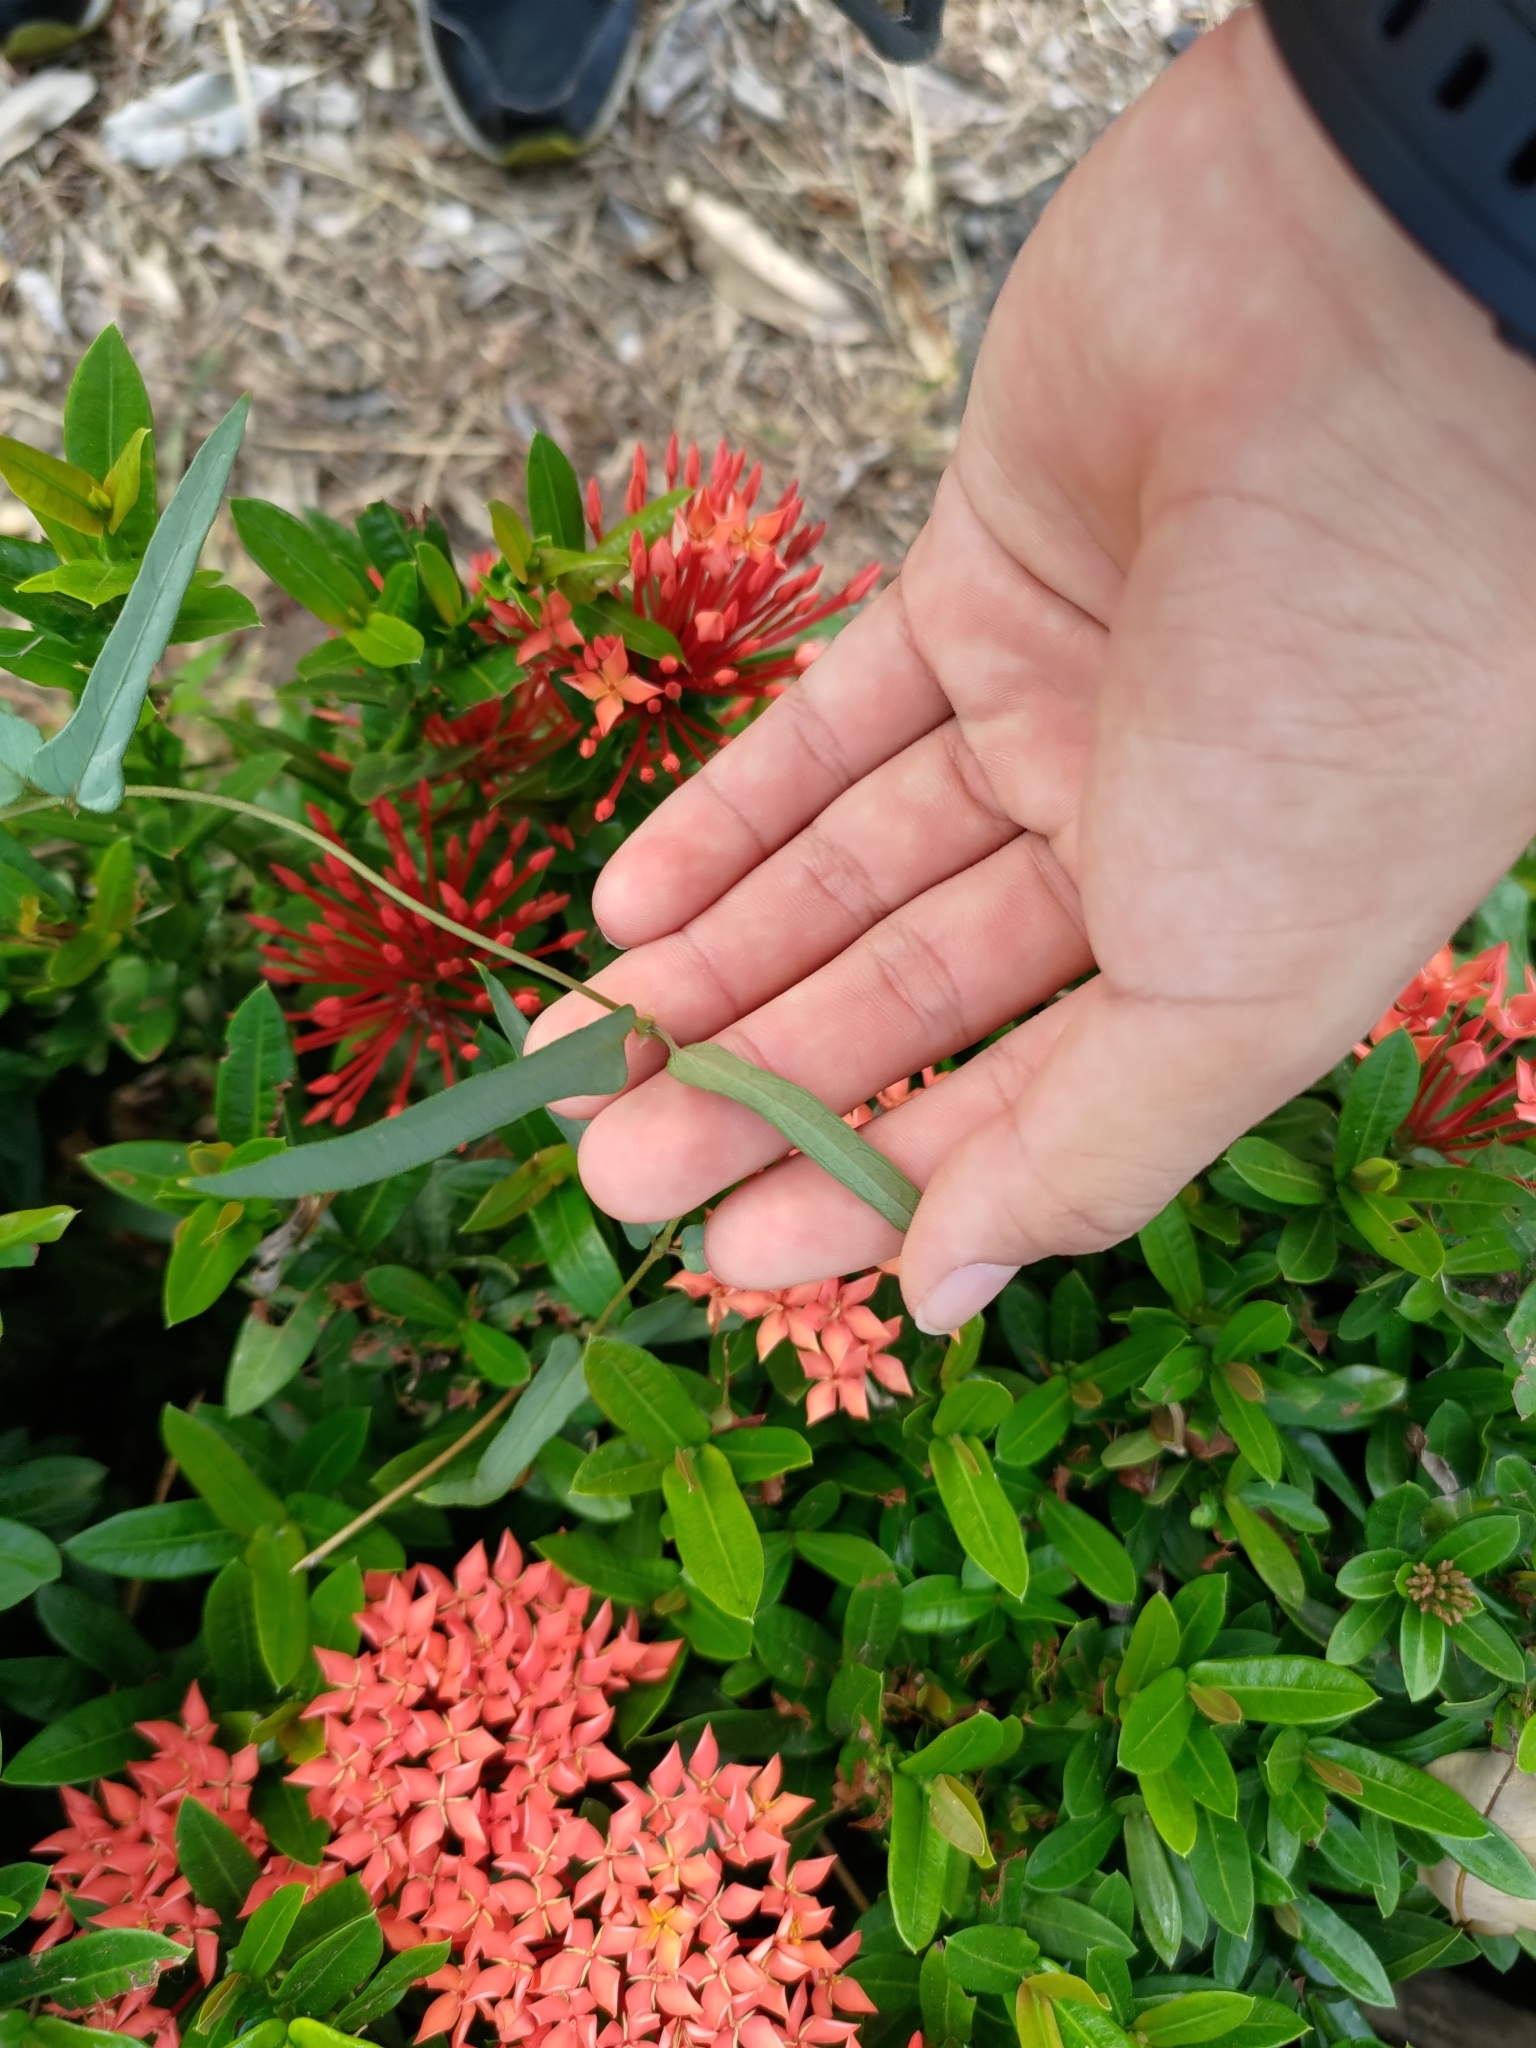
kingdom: Plantae
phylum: Tracheophyta
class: Magnoliopsida
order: Gentianales
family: Rubiaceae
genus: Paederia
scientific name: Paederia foetida
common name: Stinkvine
